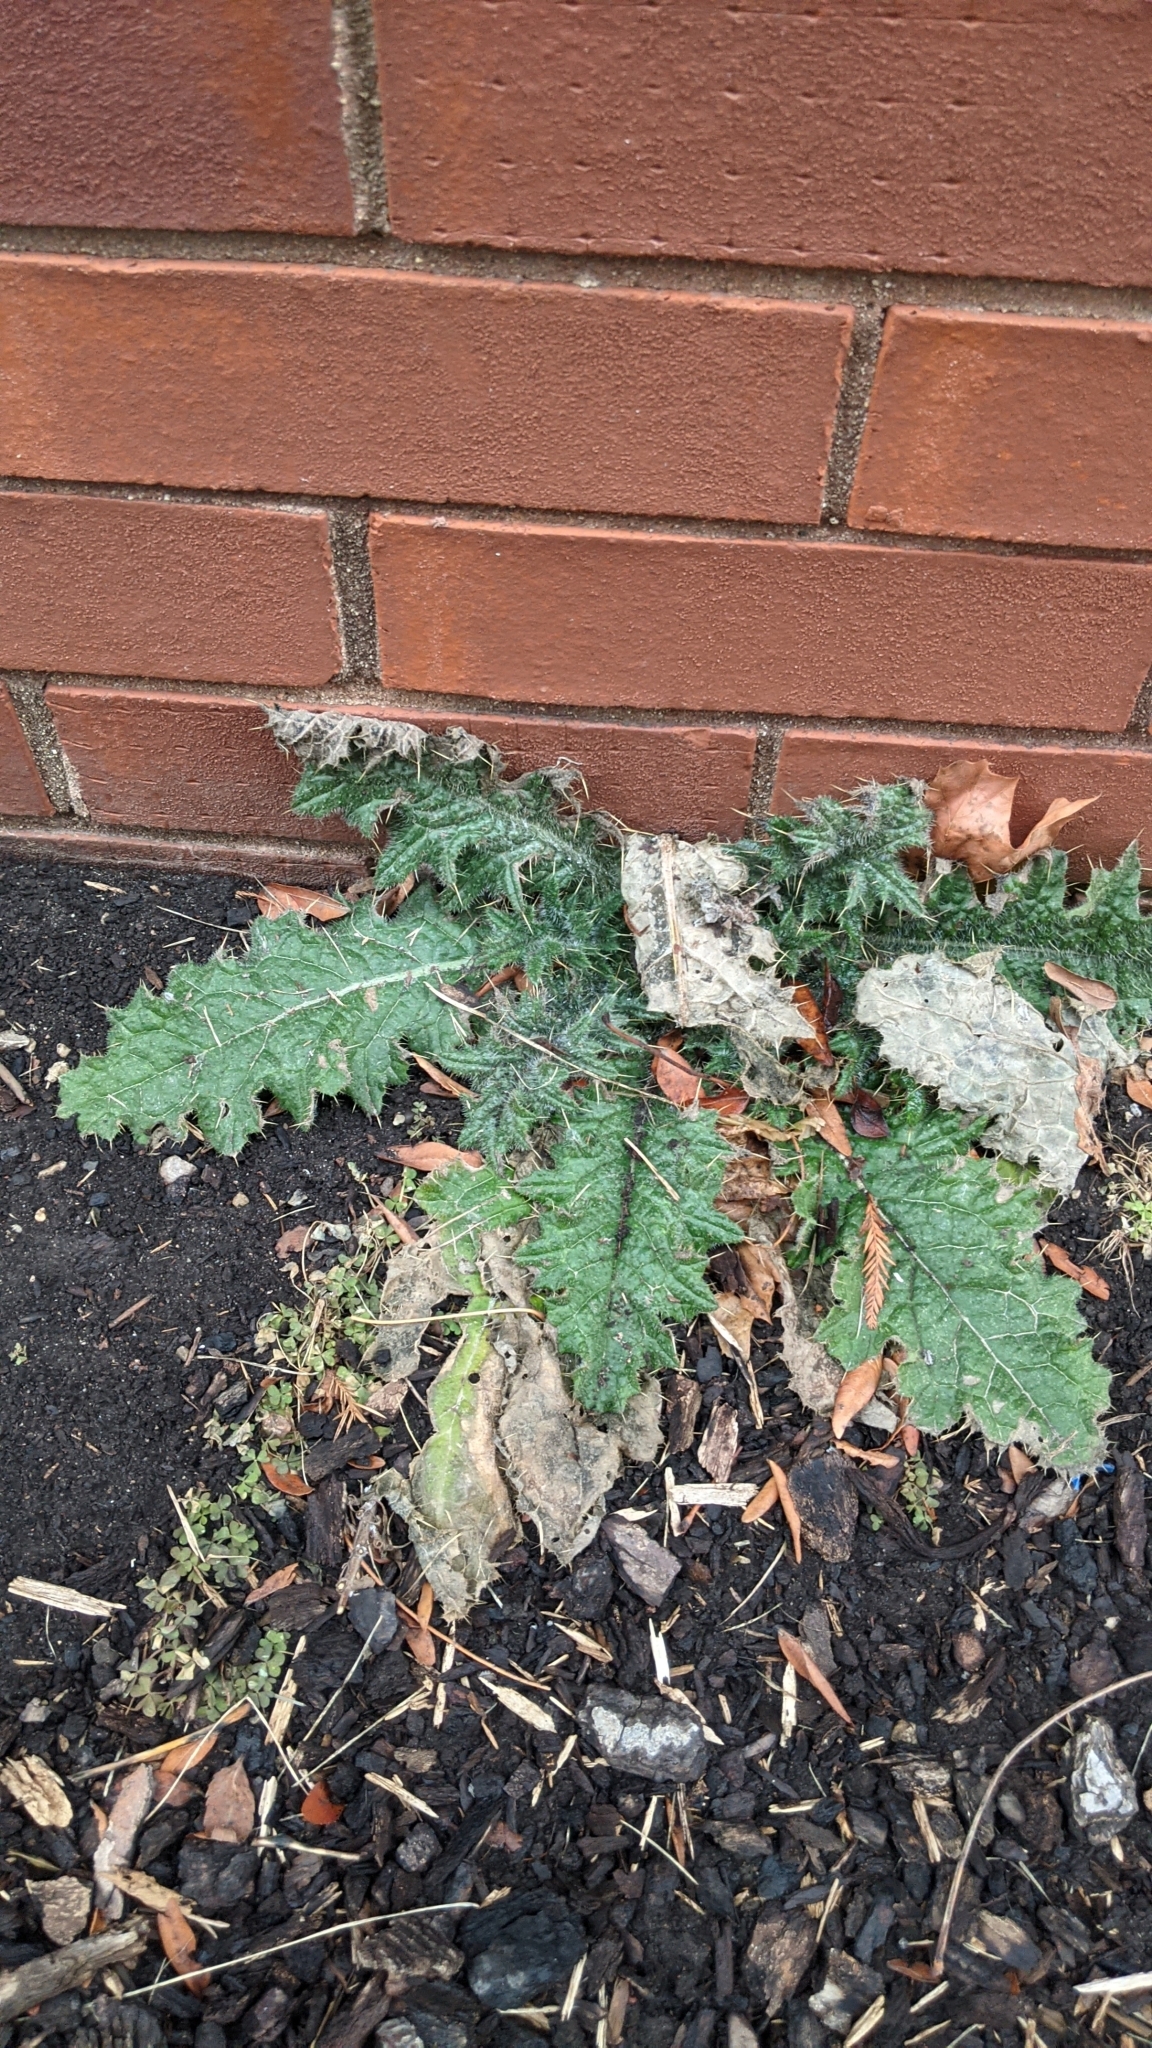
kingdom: Plantae
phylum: Tracheophyta
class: Magnoliopsida
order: Asterales
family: Asteraceae
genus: Cirsium
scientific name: Cirsium vulgare
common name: Bull thistle
